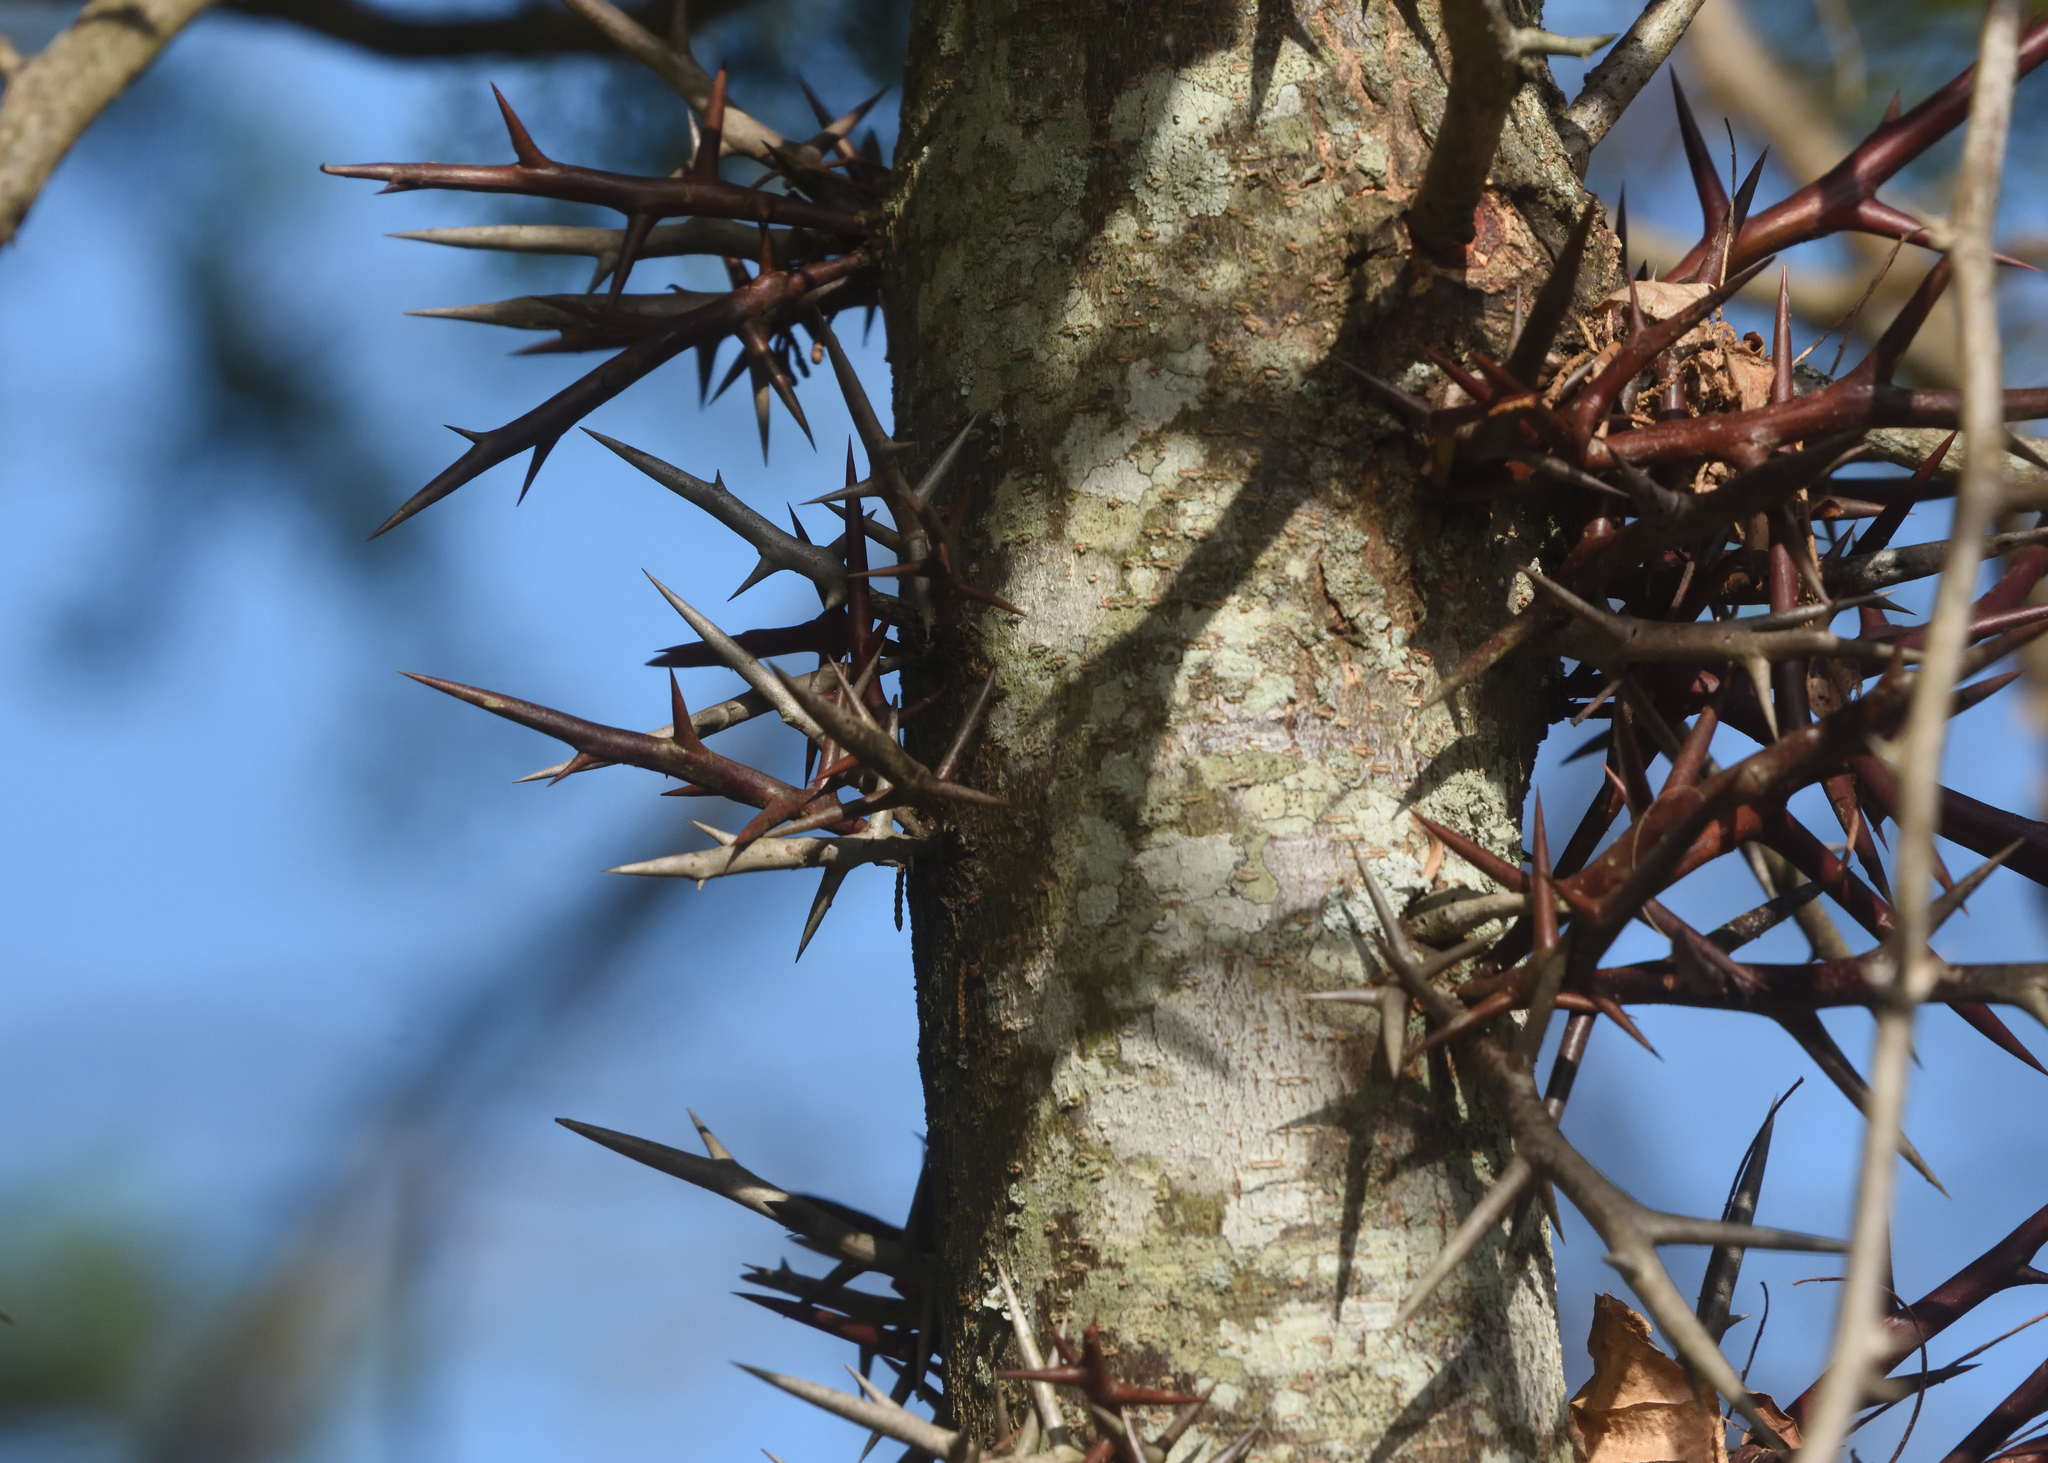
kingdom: Plantae
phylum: Tracheophyta
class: Magnoliopsida
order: Fabales
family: Fabaceae
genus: Gleditsia
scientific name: Gleditsia triacanthos
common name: Common honeylocust
